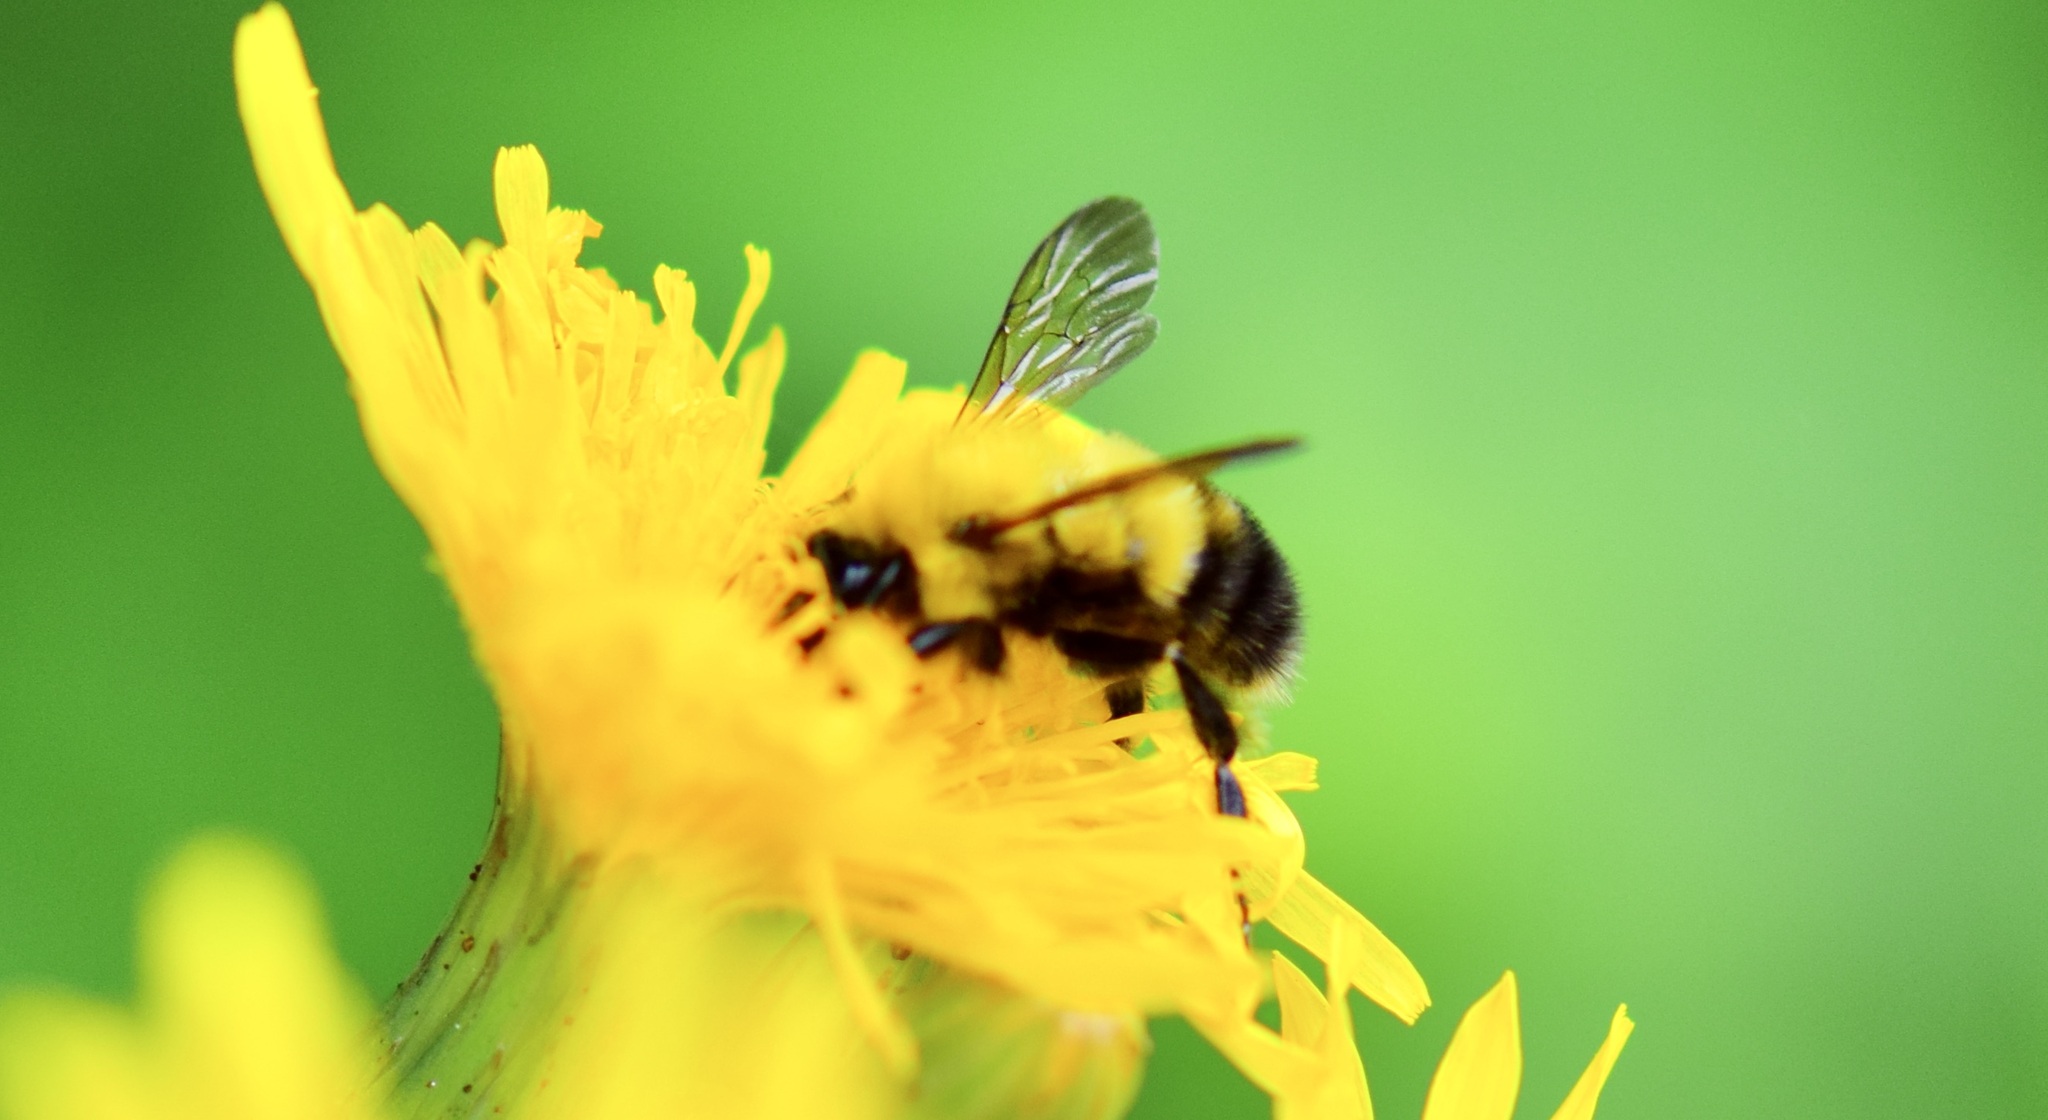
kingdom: Animalia
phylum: Arthropoda
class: Insecta
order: Hymenoptera
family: Apidae
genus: Bombus
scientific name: Bombus perplexus
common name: Confusing bumble bee
